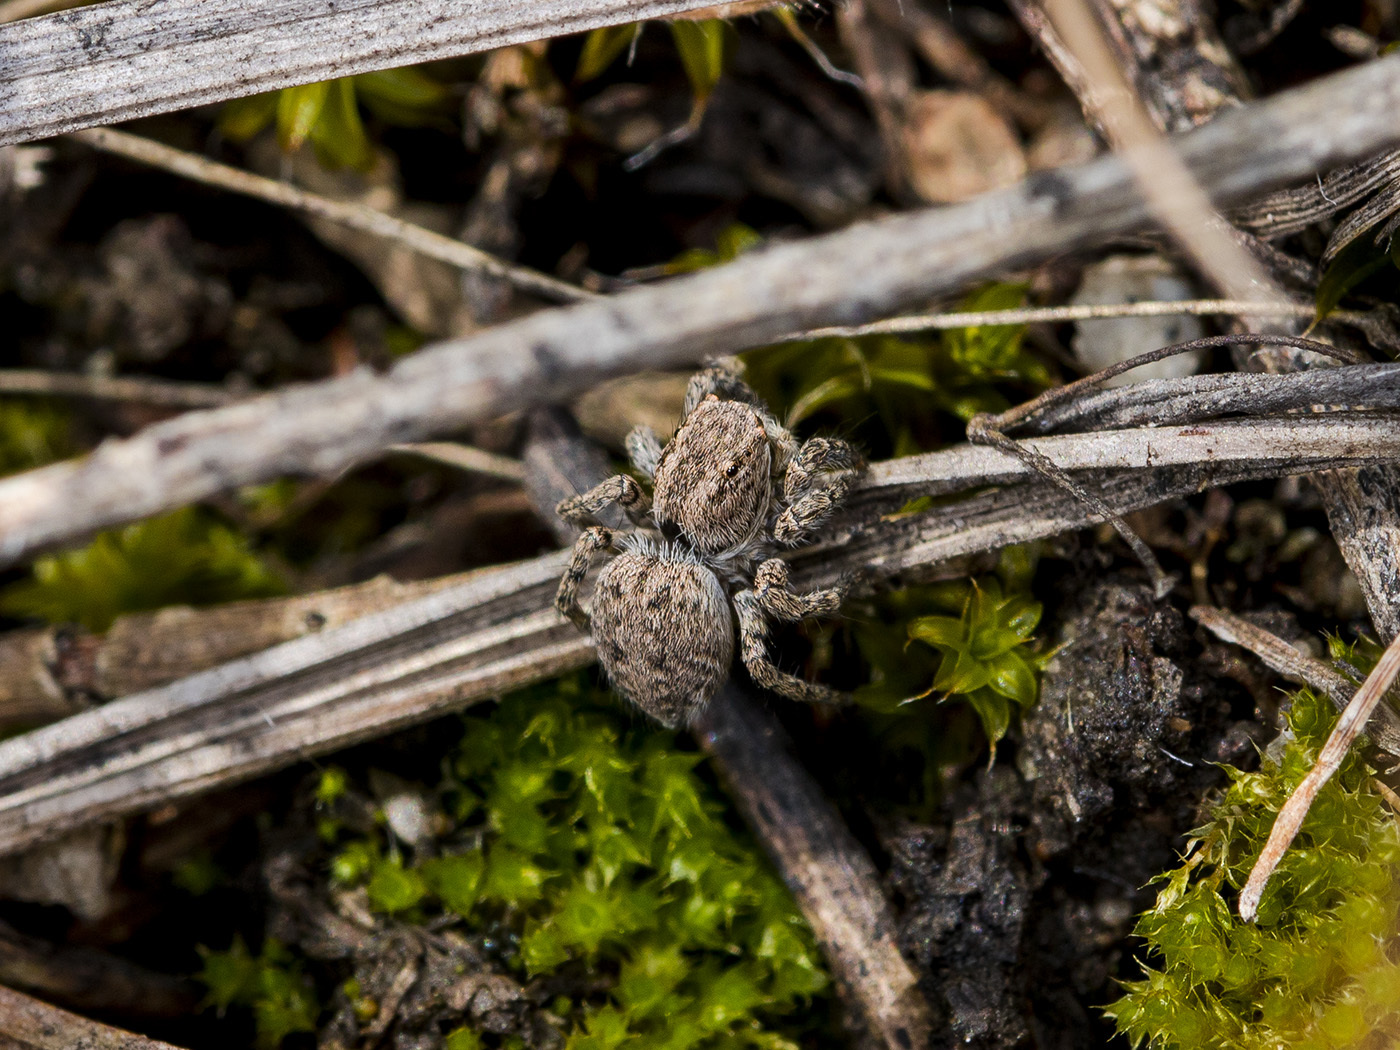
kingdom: Animalia
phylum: Arthropoda
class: Arachnida
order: Araneae
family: Salticidae
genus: Aelurillus
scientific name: Aelurillus v-insignitus
